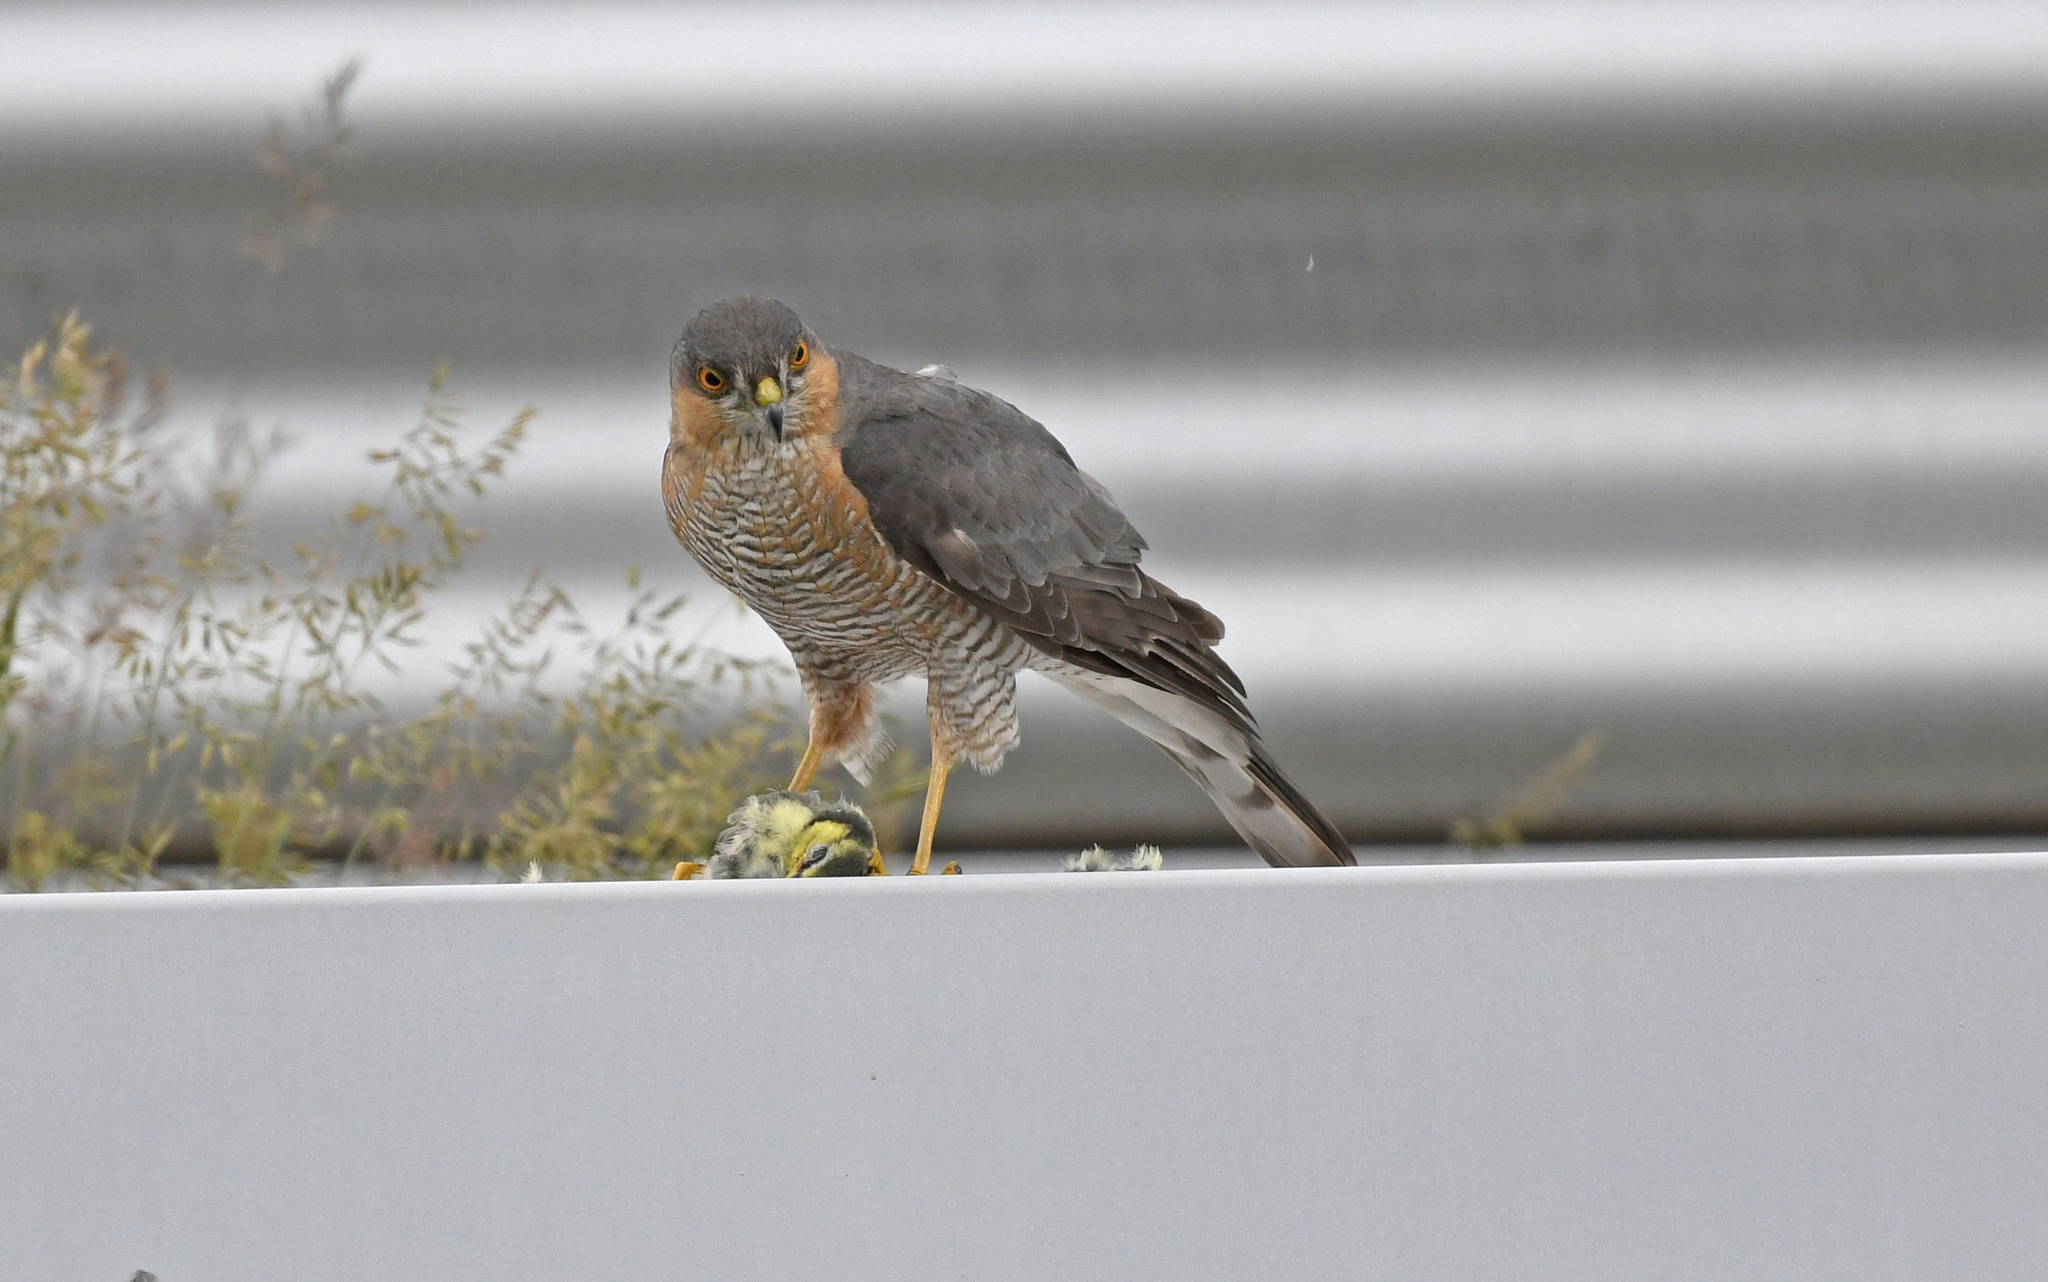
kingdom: Animalia
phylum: Chordata
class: Aves
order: Accipitriformes
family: Accipitridae
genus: Accipiter
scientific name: Accipiter nisus
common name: Eurasian sparrowhawk
